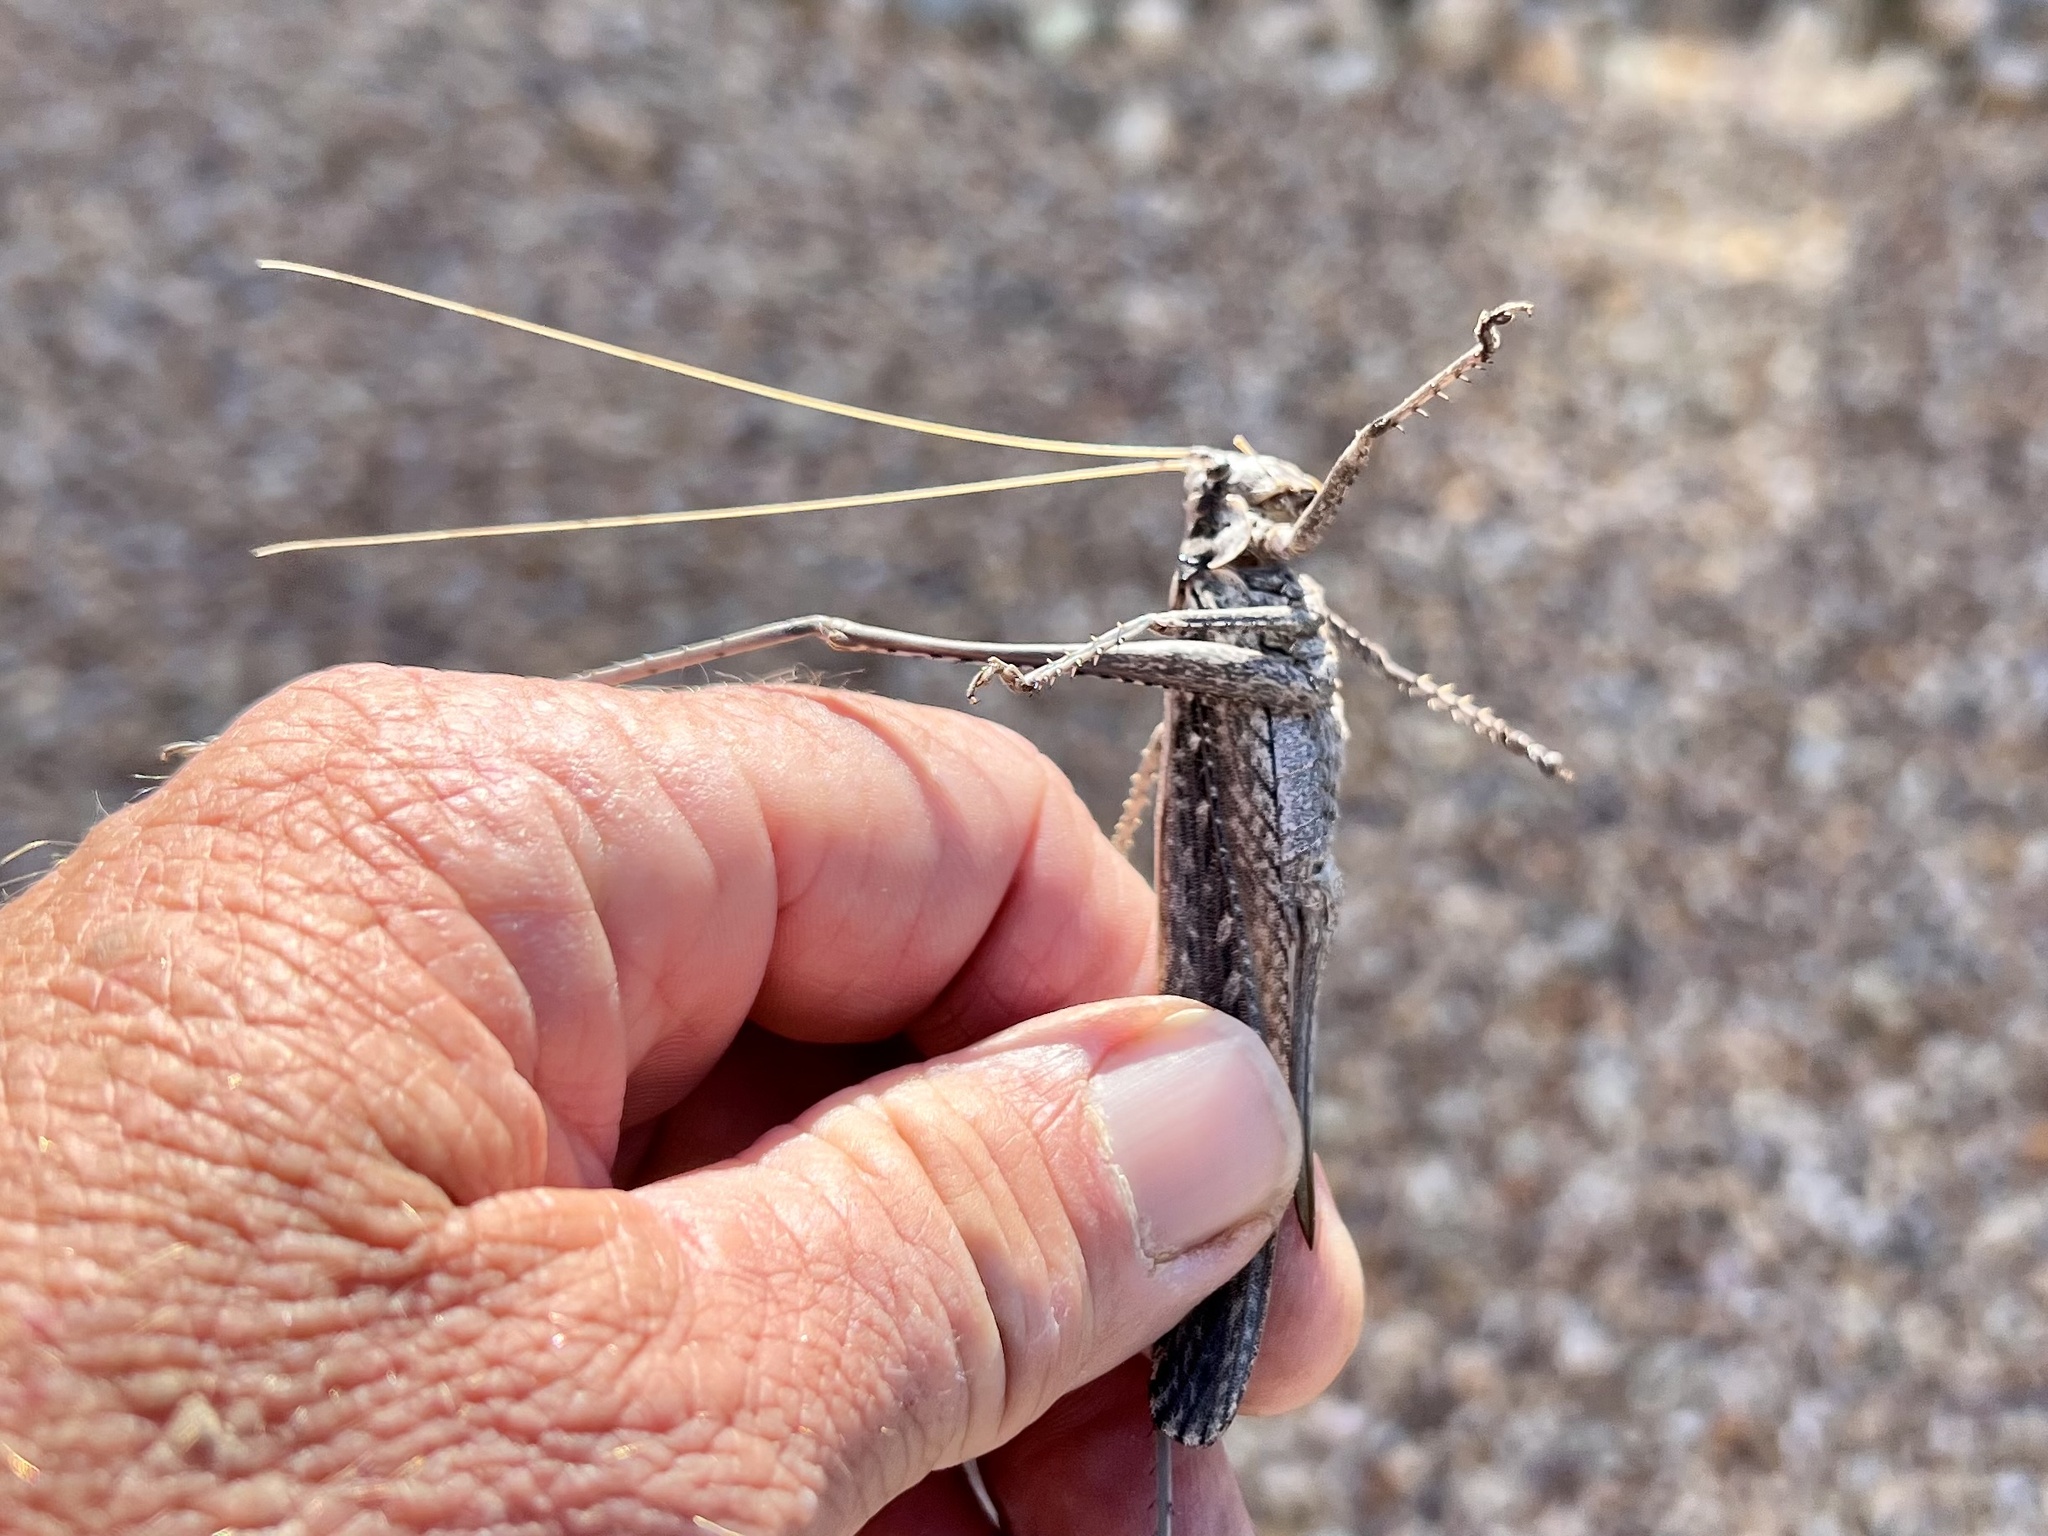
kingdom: Animalia
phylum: Arthropoda
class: Insecta
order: Orthoptera
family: Tettigoniidae
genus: Capnobotes
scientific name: Capnobotes fuliginosus
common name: Sooty longwing
